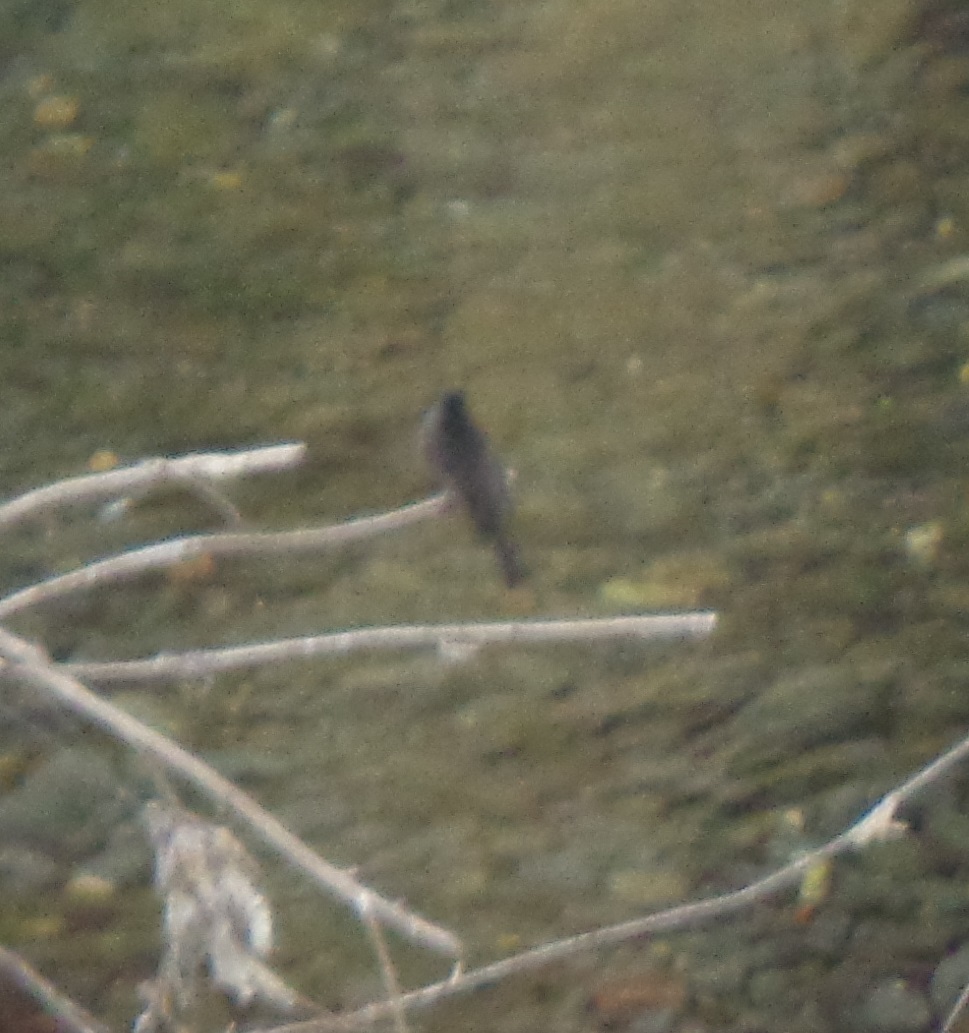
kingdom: Animalia
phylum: Chordata
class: Aves
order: Passeriformes
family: Tyrannidae
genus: Sayornis
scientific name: Sayornis nigricans
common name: Black phoebe
